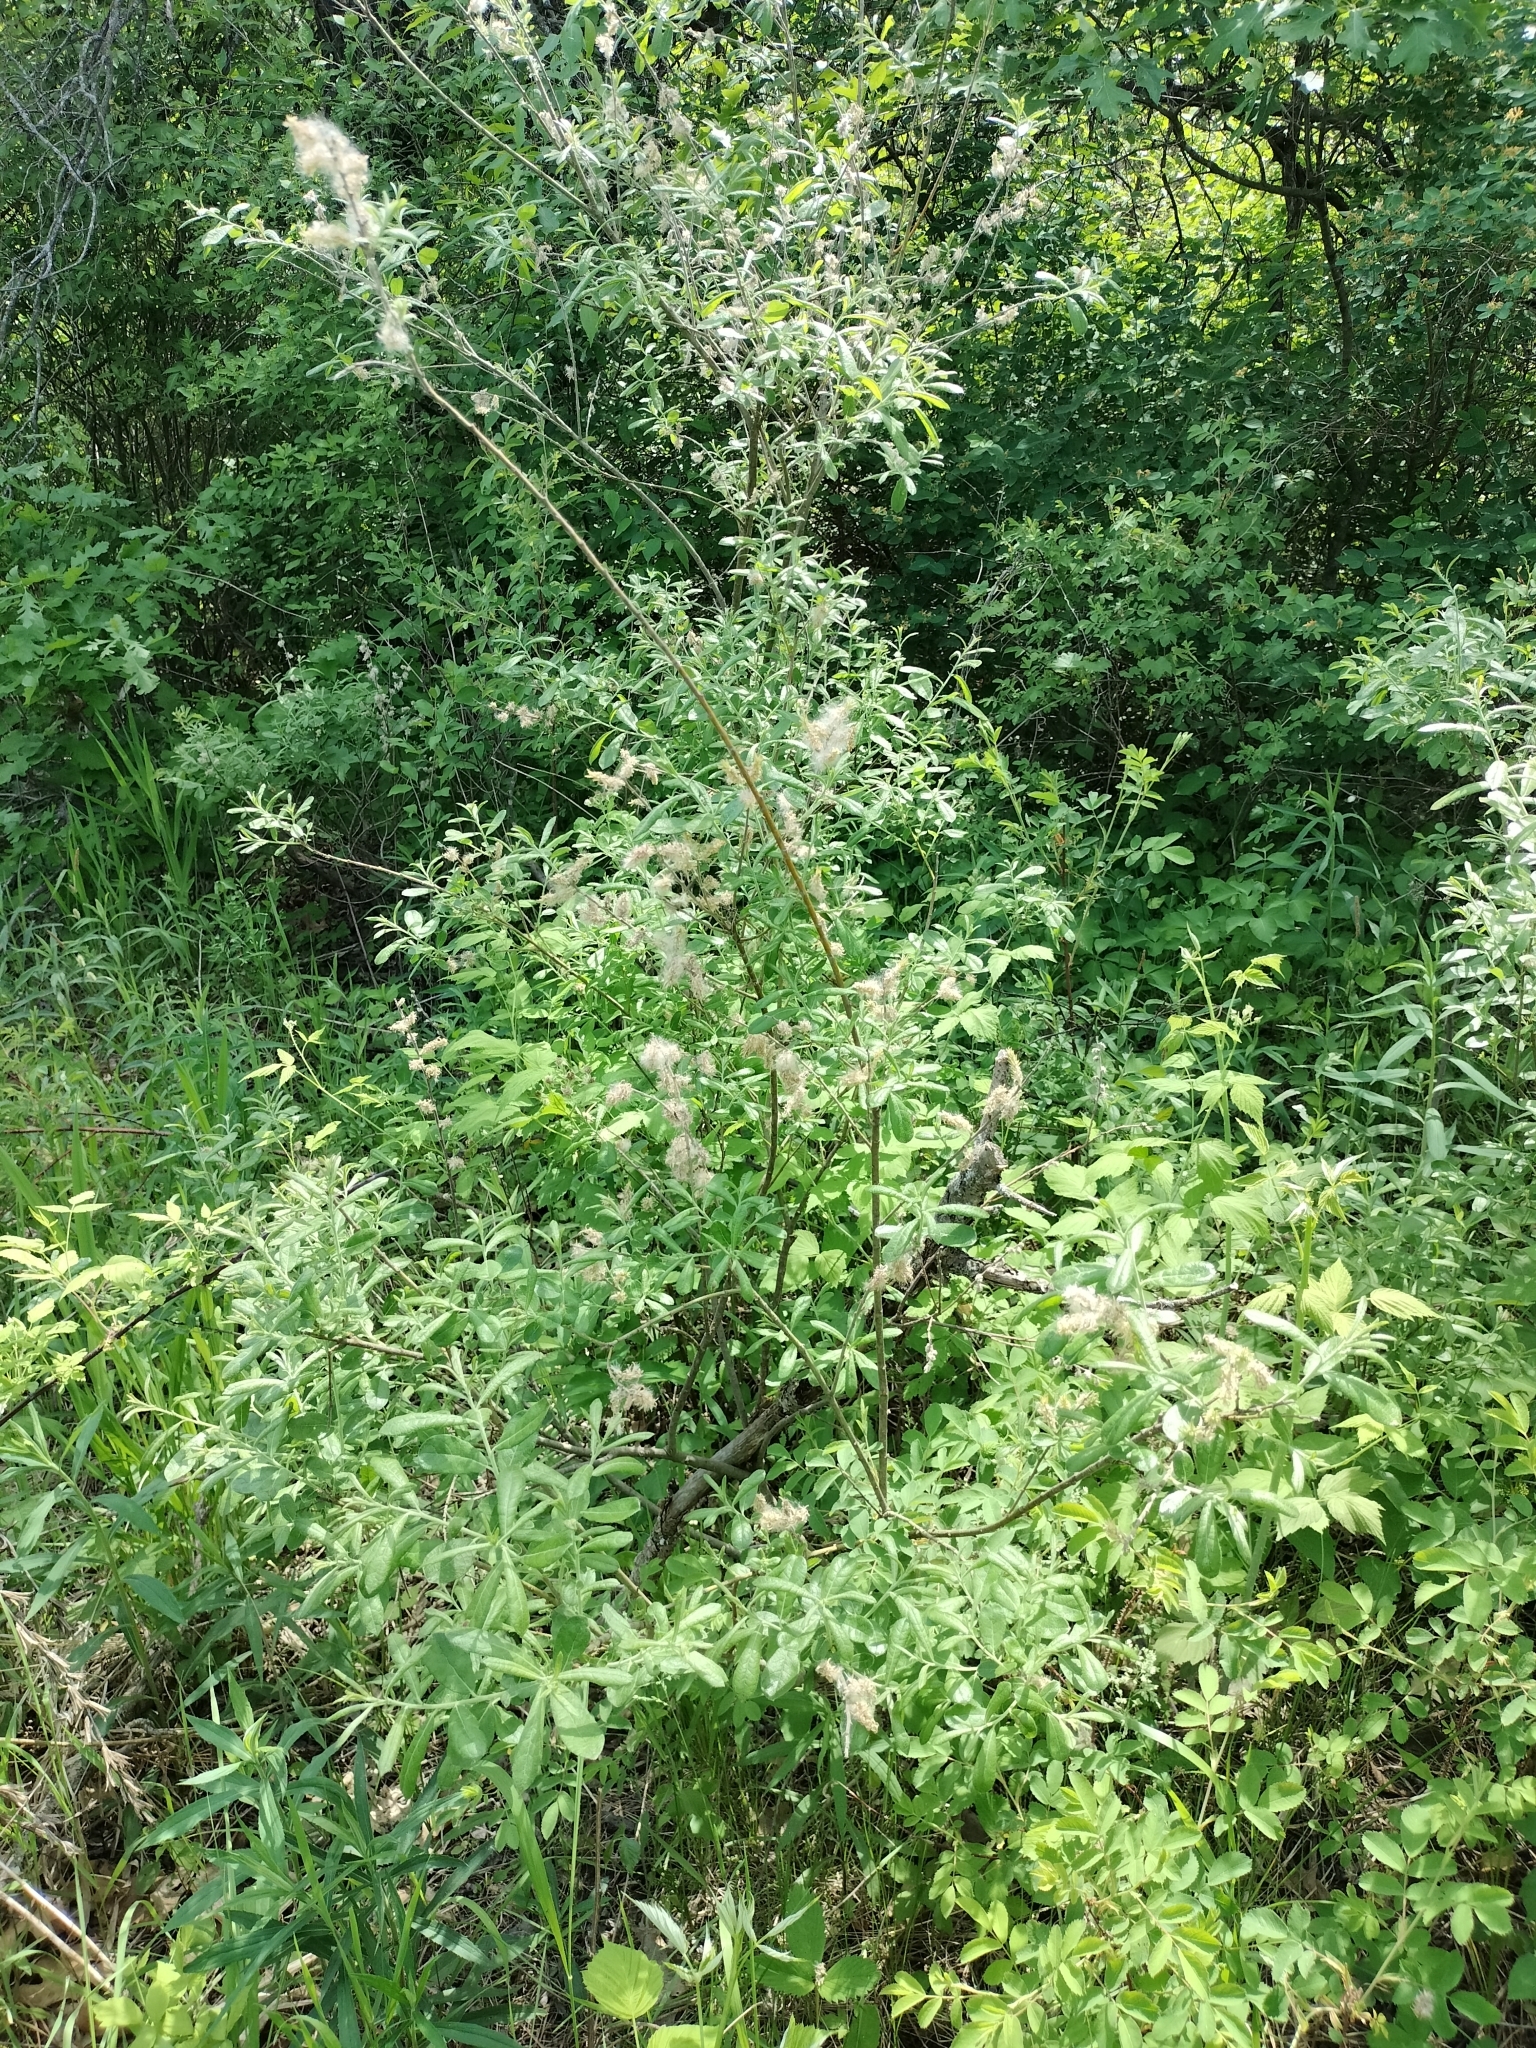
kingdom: Plantae
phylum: Tracheophyta
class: Magnoliopsida
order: Malpighiales
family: Salicaceae
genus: Salix
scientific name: Salix humilis
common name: Prairie willow
